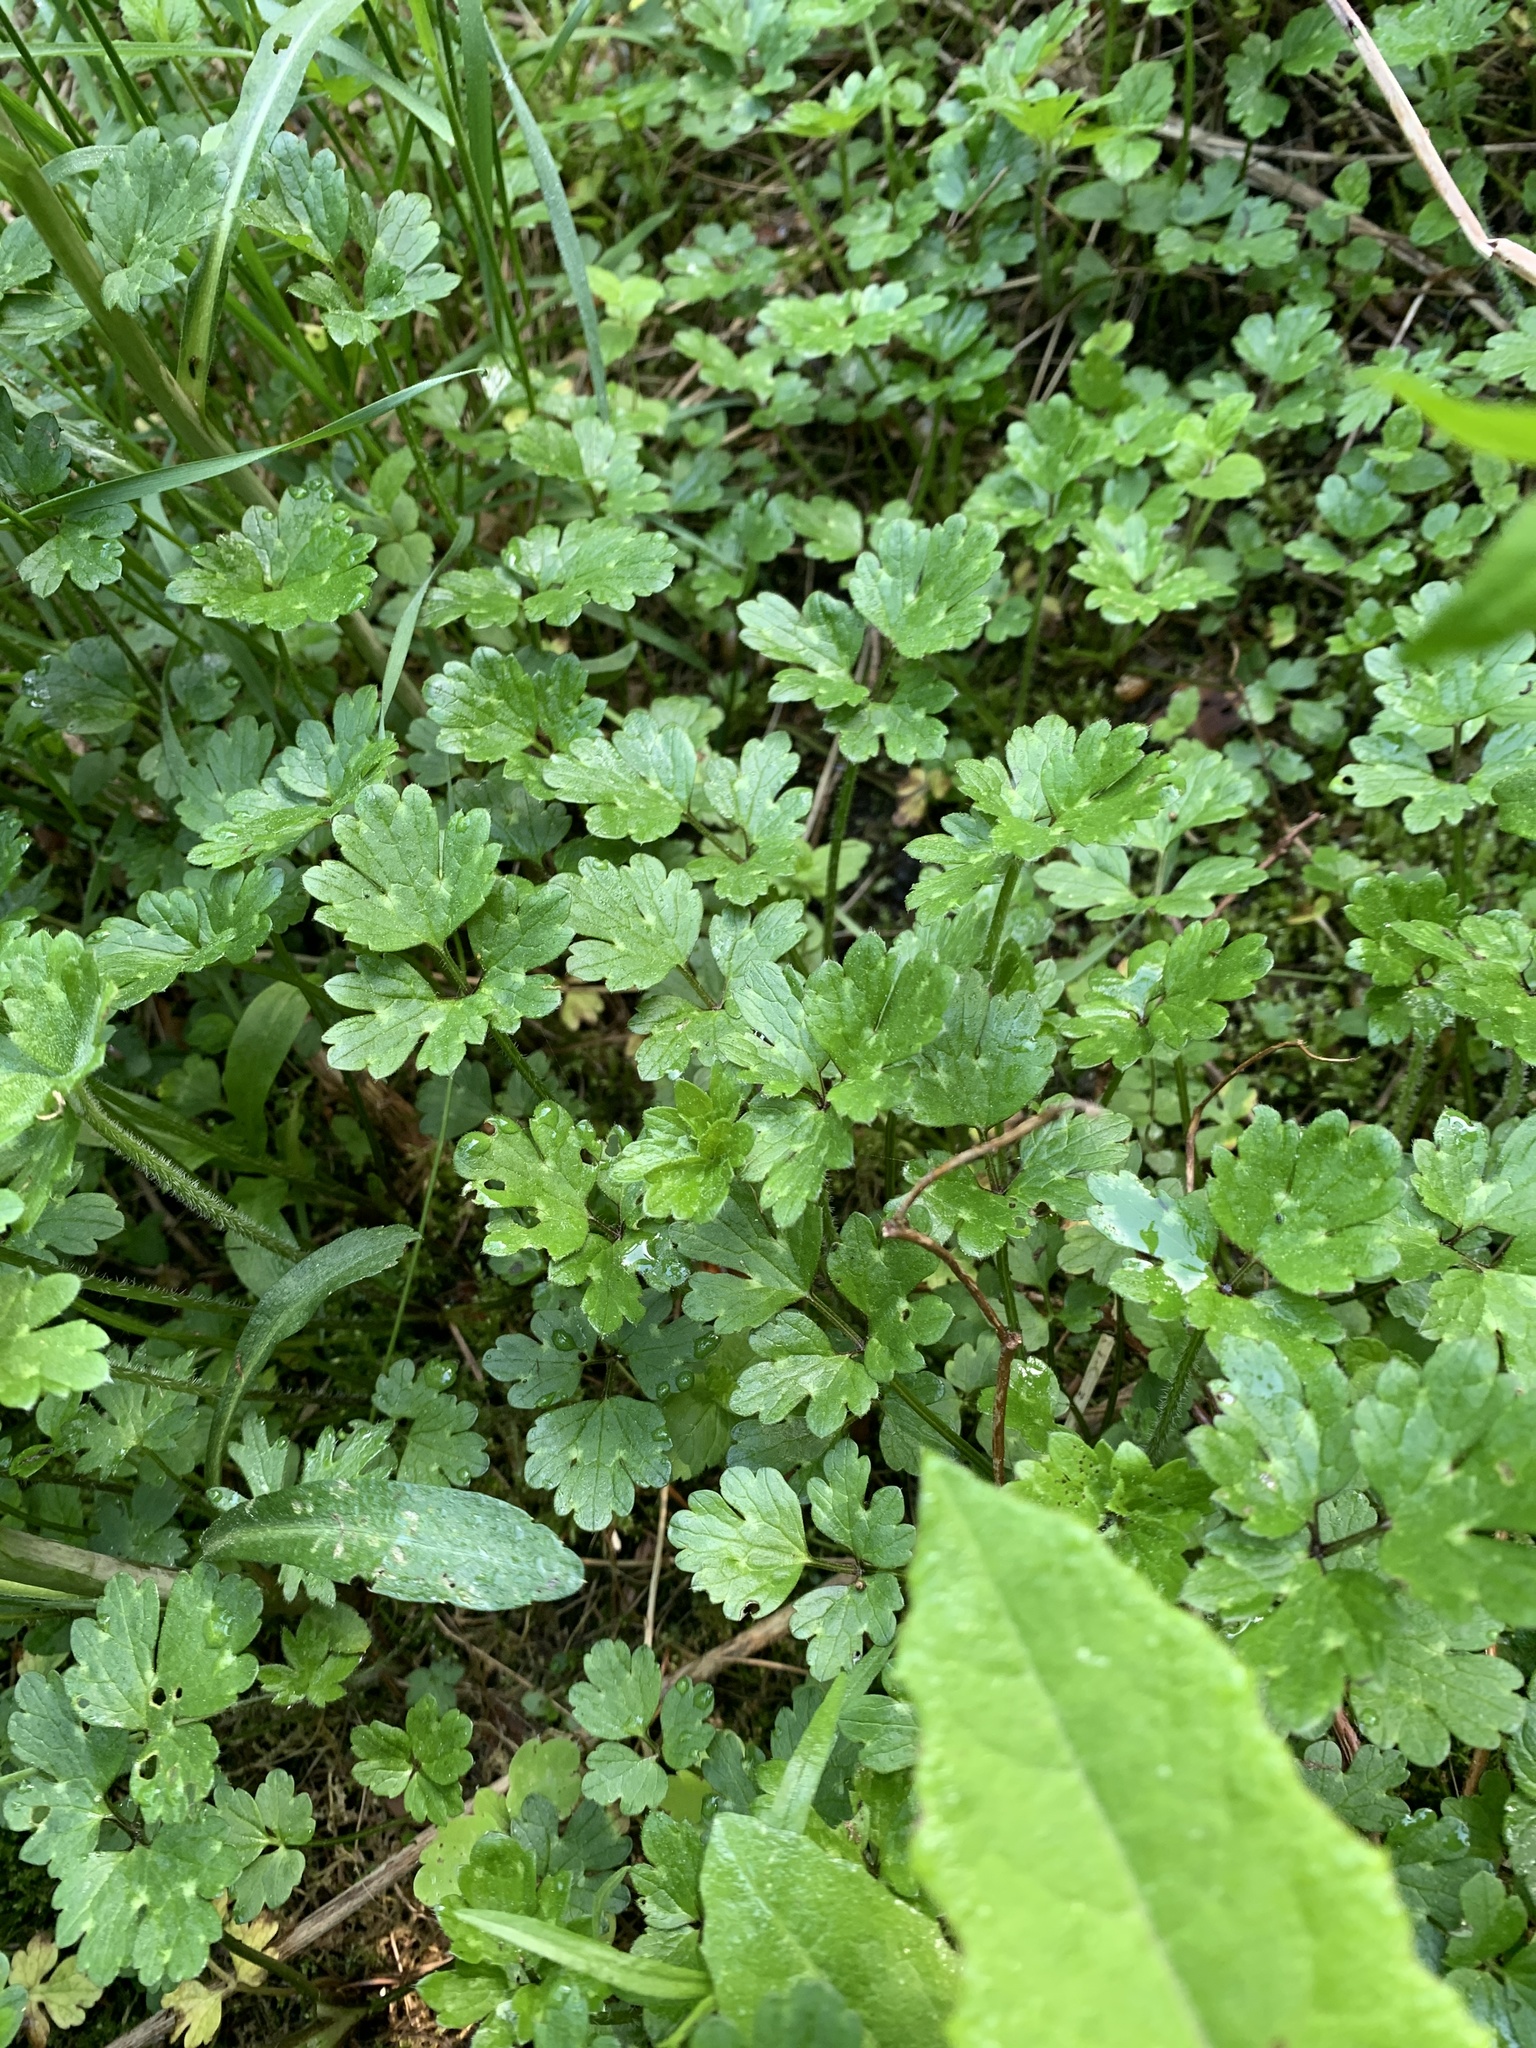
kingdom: Plantae
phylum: Tracheophyta
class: Magnoliopsida
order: Ranunculales
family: Ranunculaceae
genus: Ranunculus
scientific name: Ranunculus repens
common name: Creeping buttercup
